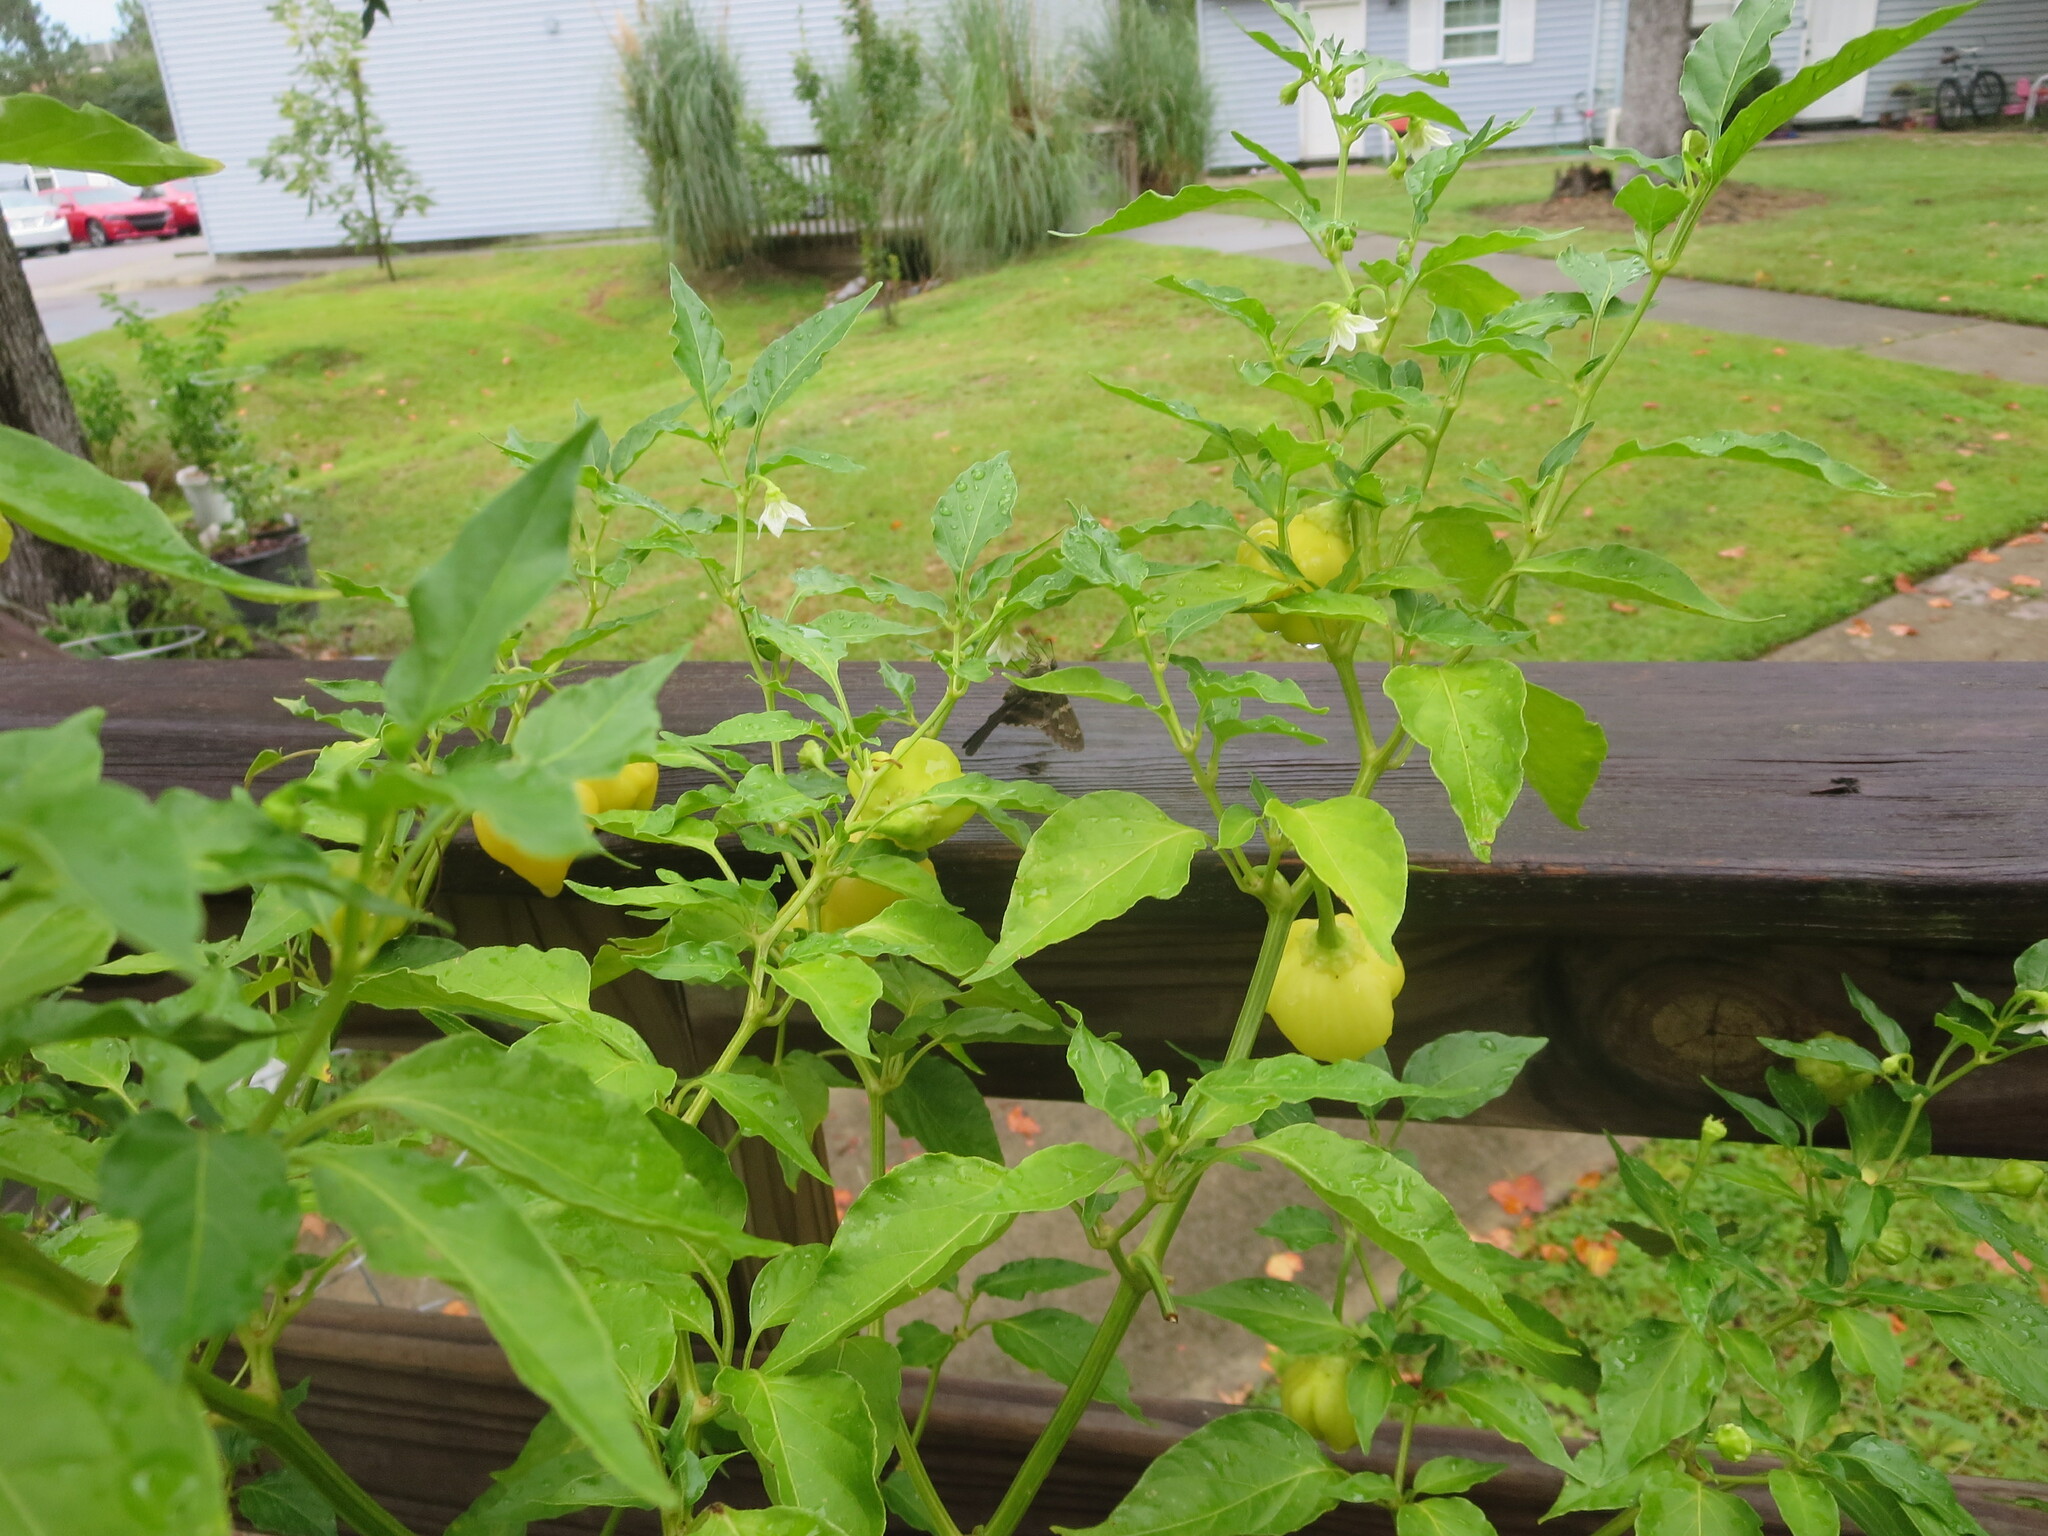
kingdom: Animalia
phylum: Arthropoda
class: Insecta
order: Lepidoptera
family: Hesperiidae
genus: Urbanus
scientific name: Urbanus proteus
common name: Long-tailed skipper
